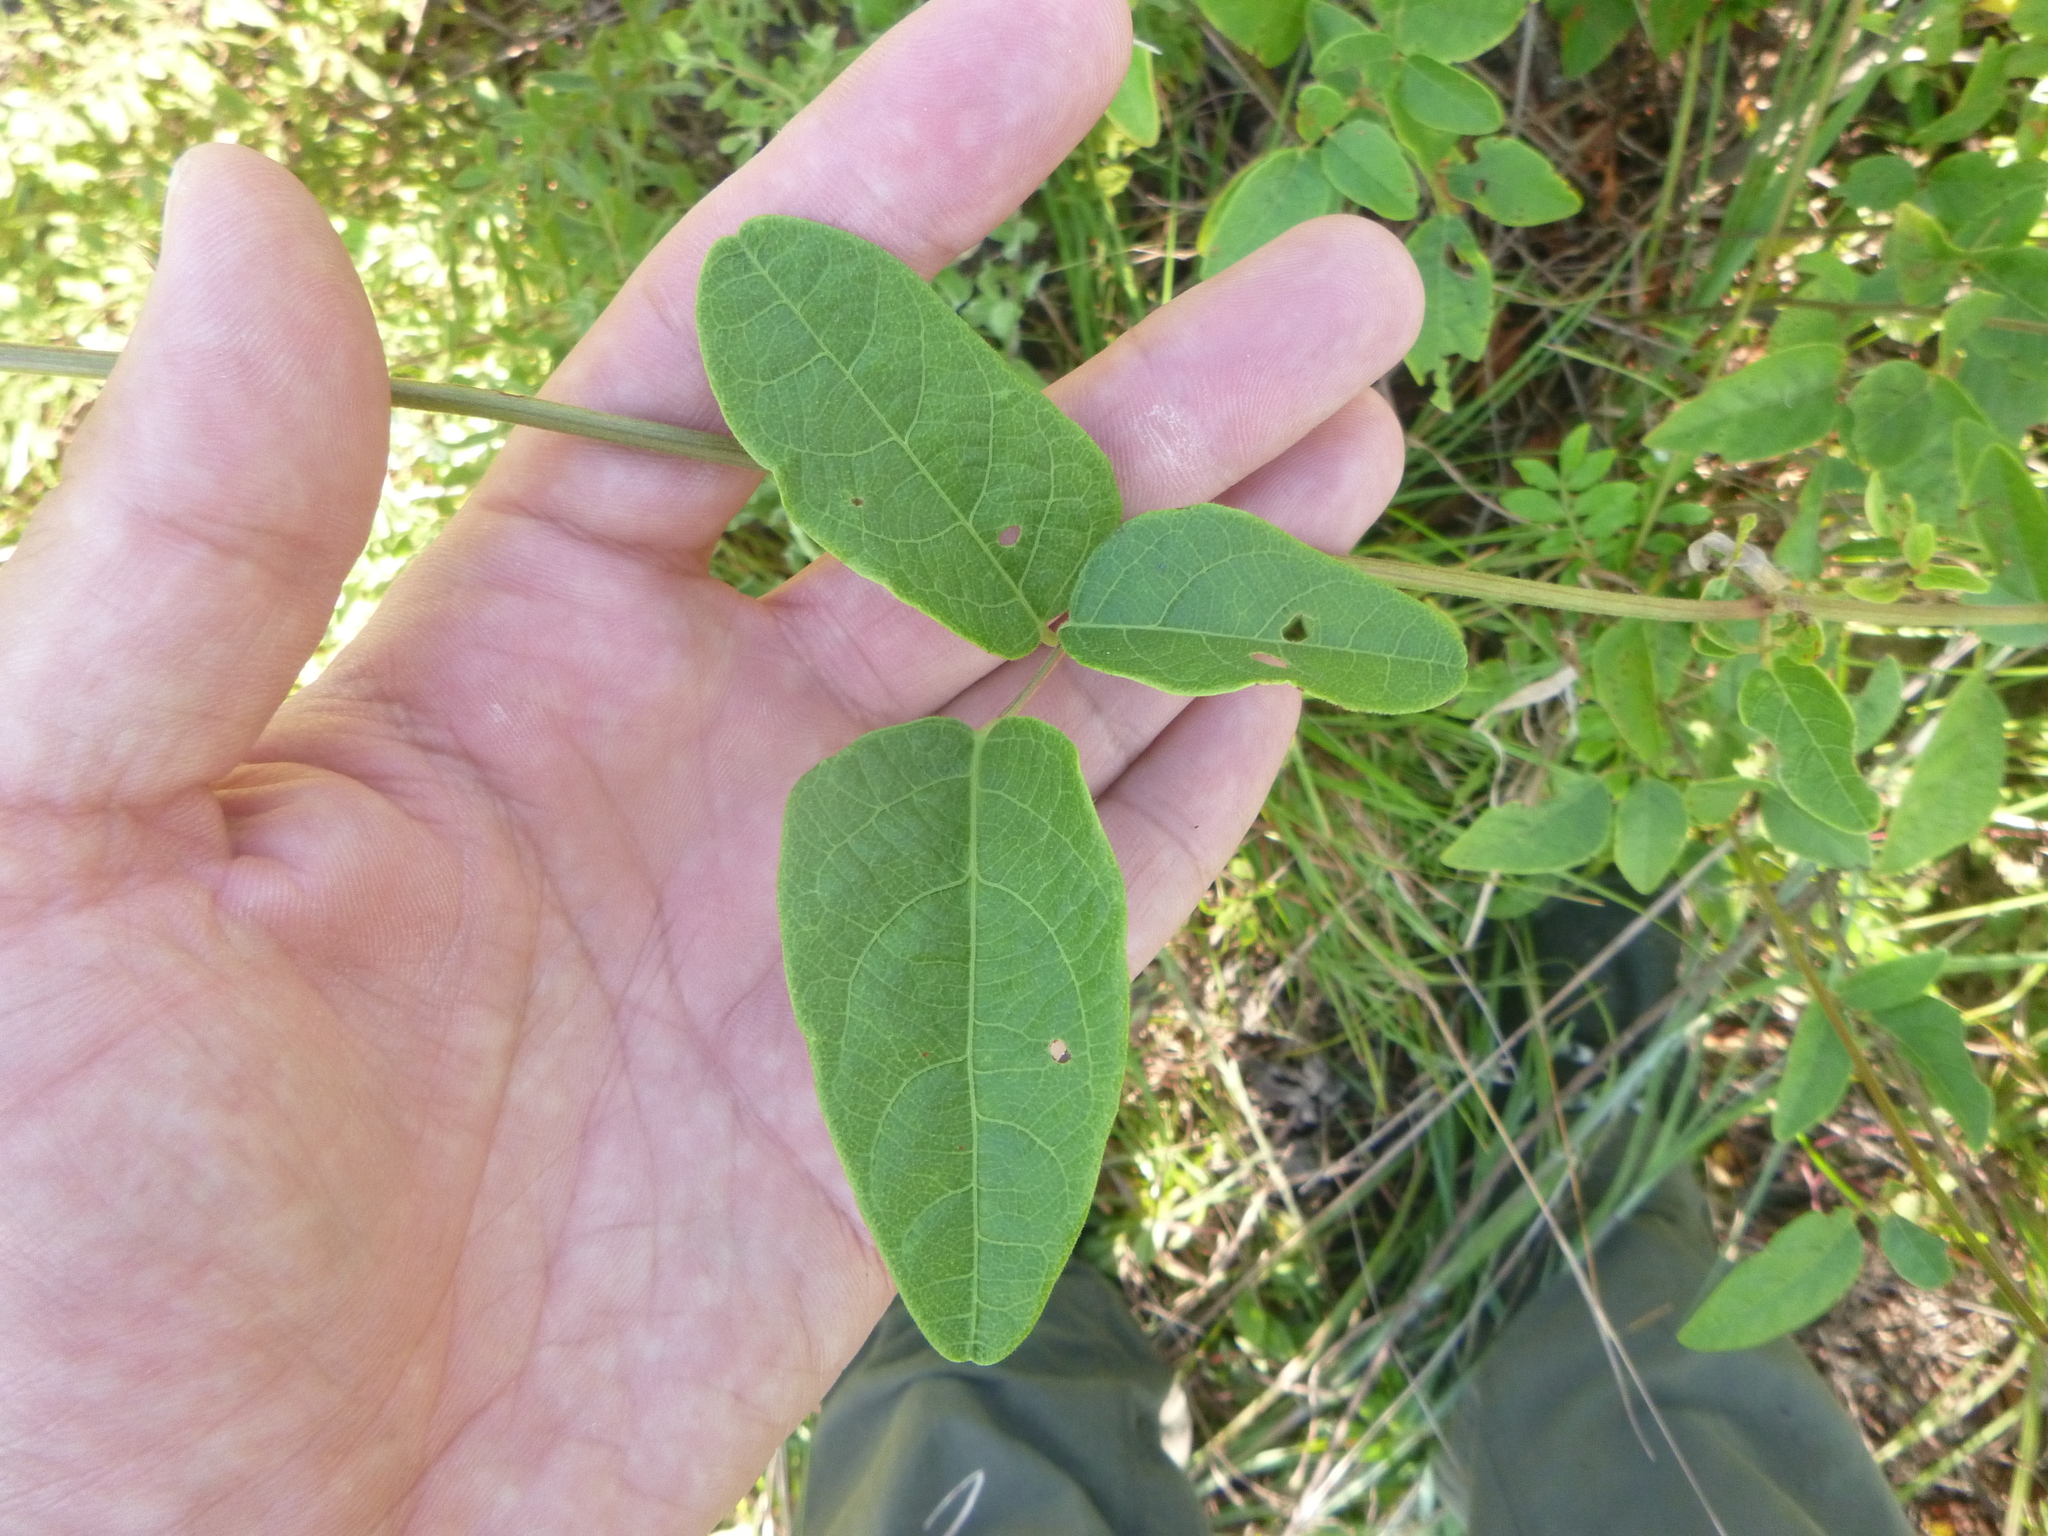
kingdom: Plantae
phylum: Tracheophyta
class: Magnoliopsida
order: Fabales
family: Fabaceae
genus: Desmodium
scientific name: Desmodium fernaldii
